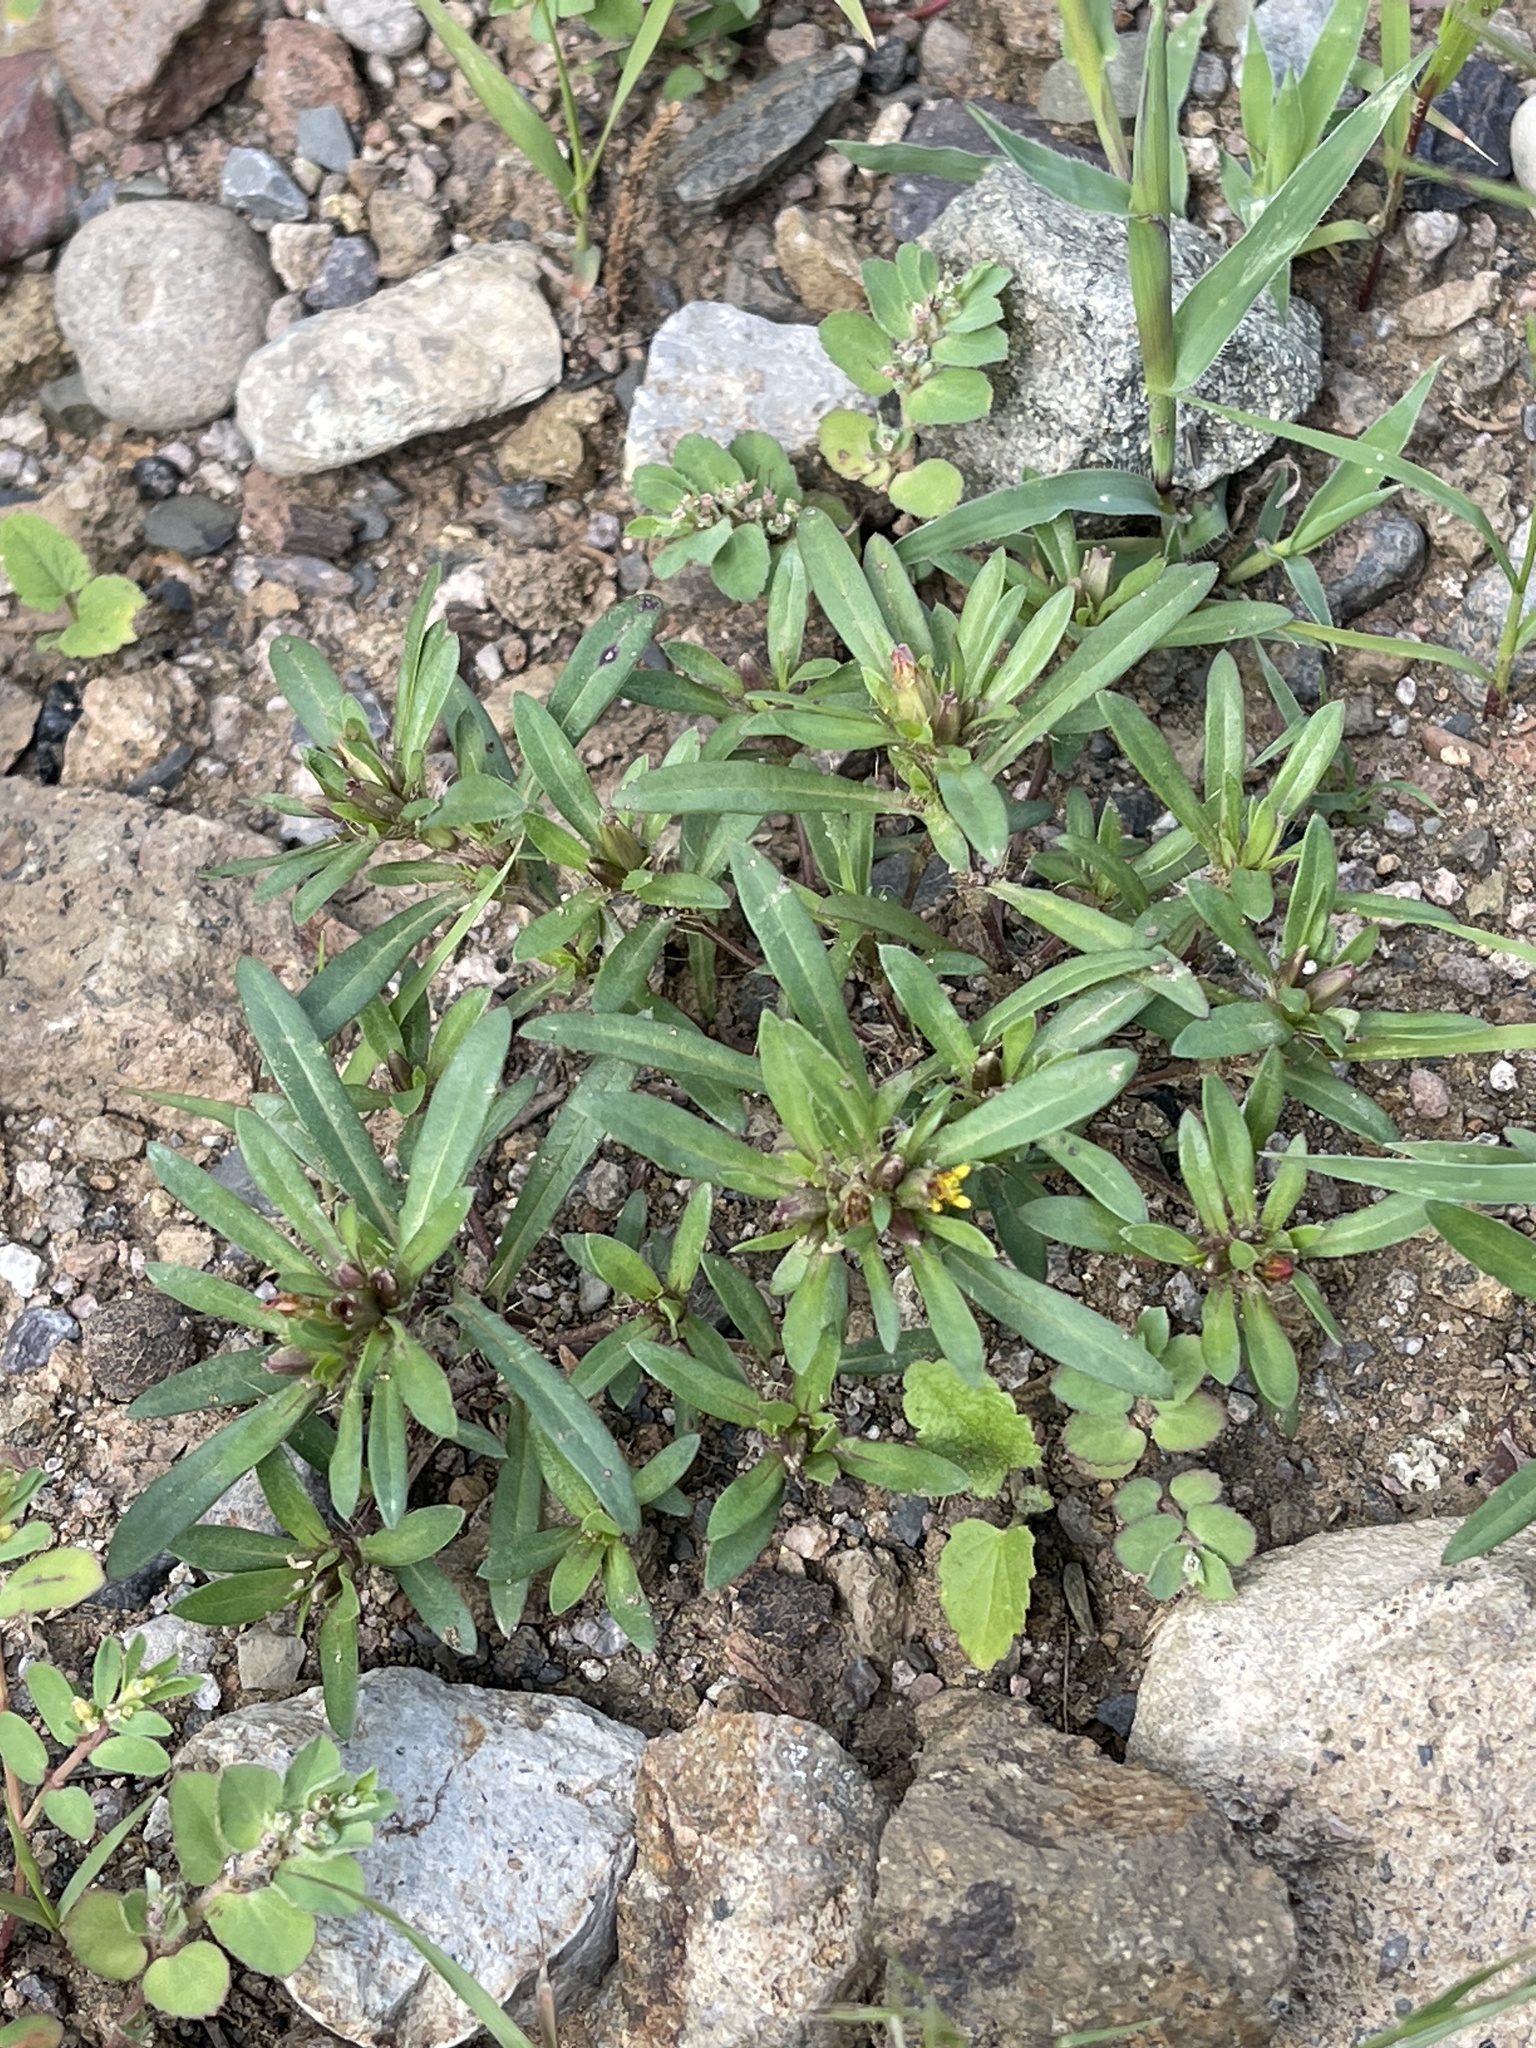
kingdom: Plantae
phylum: Tracheophyta
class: Magnoliopsida
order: Asterales
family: Asteraceae
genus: Pectis
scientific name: Pectis prostrata
